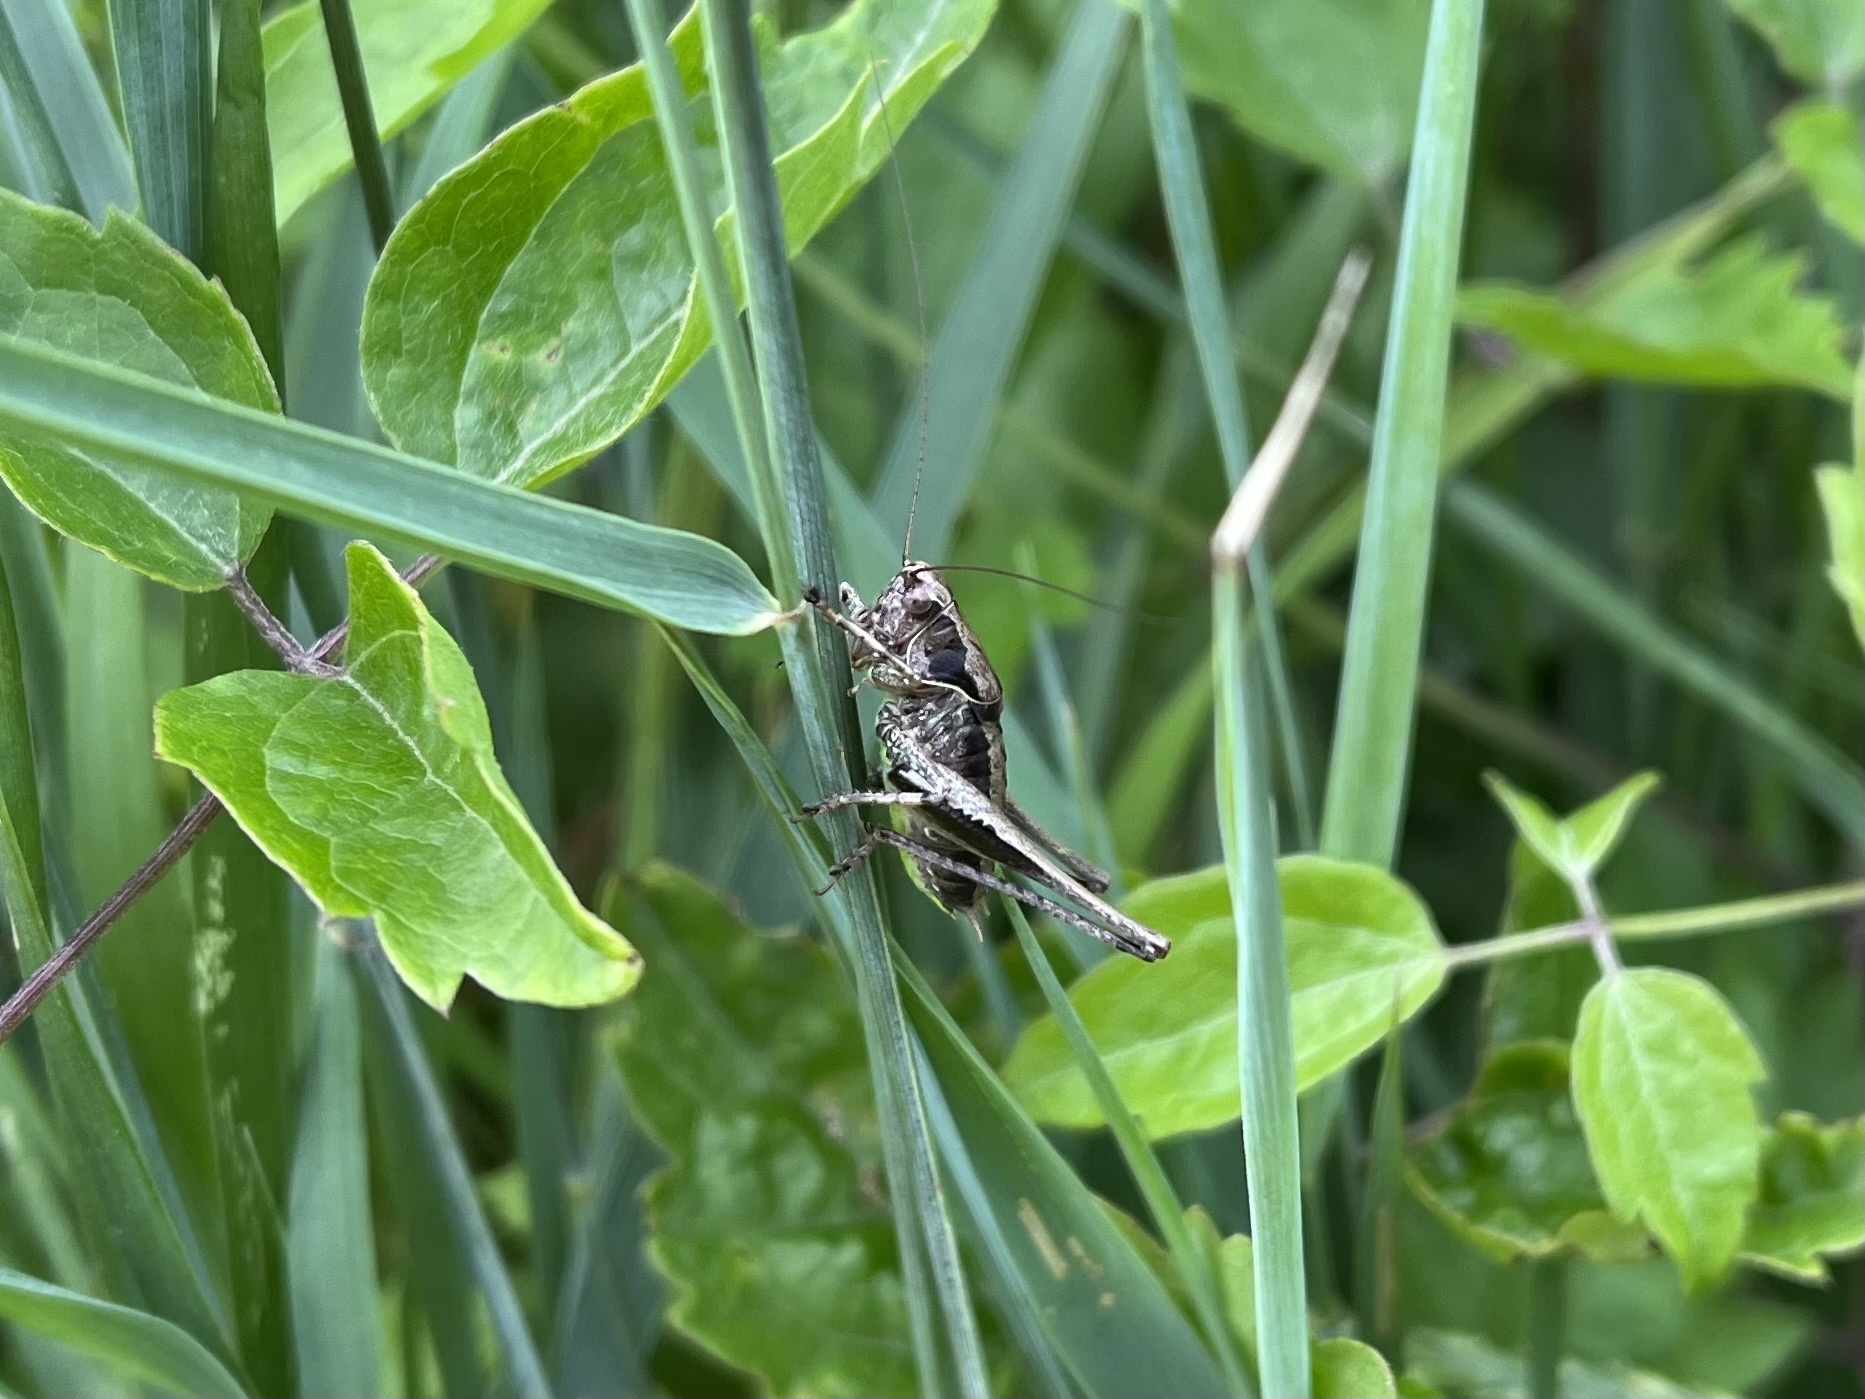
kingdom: Animalia
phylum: Arthropoda
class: Insecta
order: Orthoptera
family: Tettigoniidae
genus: Pholidoptera
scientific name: Pholidoptera griseoaptera
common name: Dark bush-cricket
